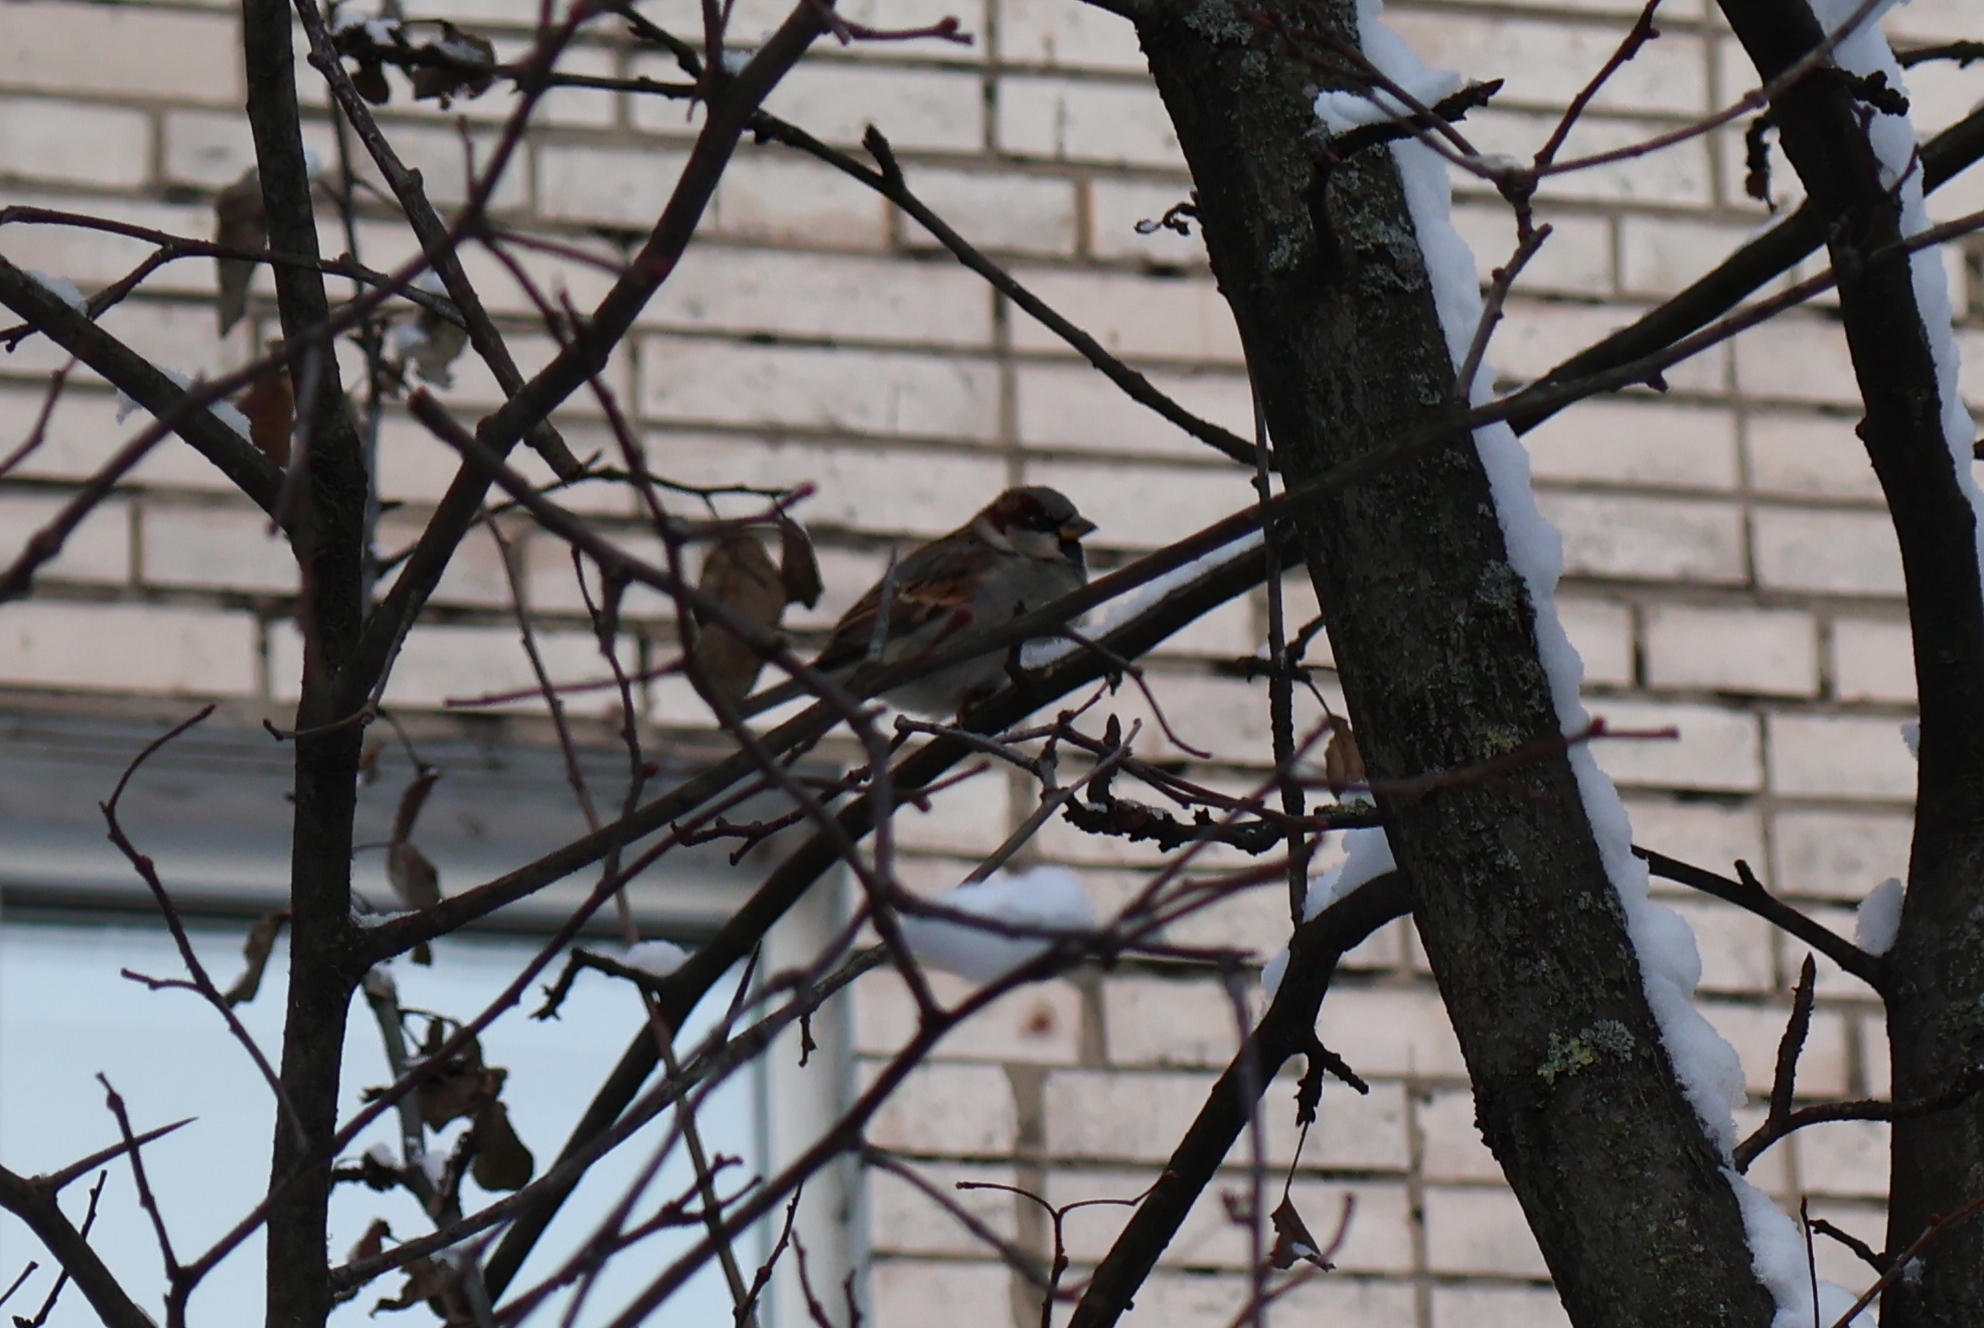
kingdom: Animalia
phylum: Chordata
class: Aves
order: Passeriformes
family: Passeridae
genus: Passer
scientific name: Passer domesticus
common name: House sparrow
